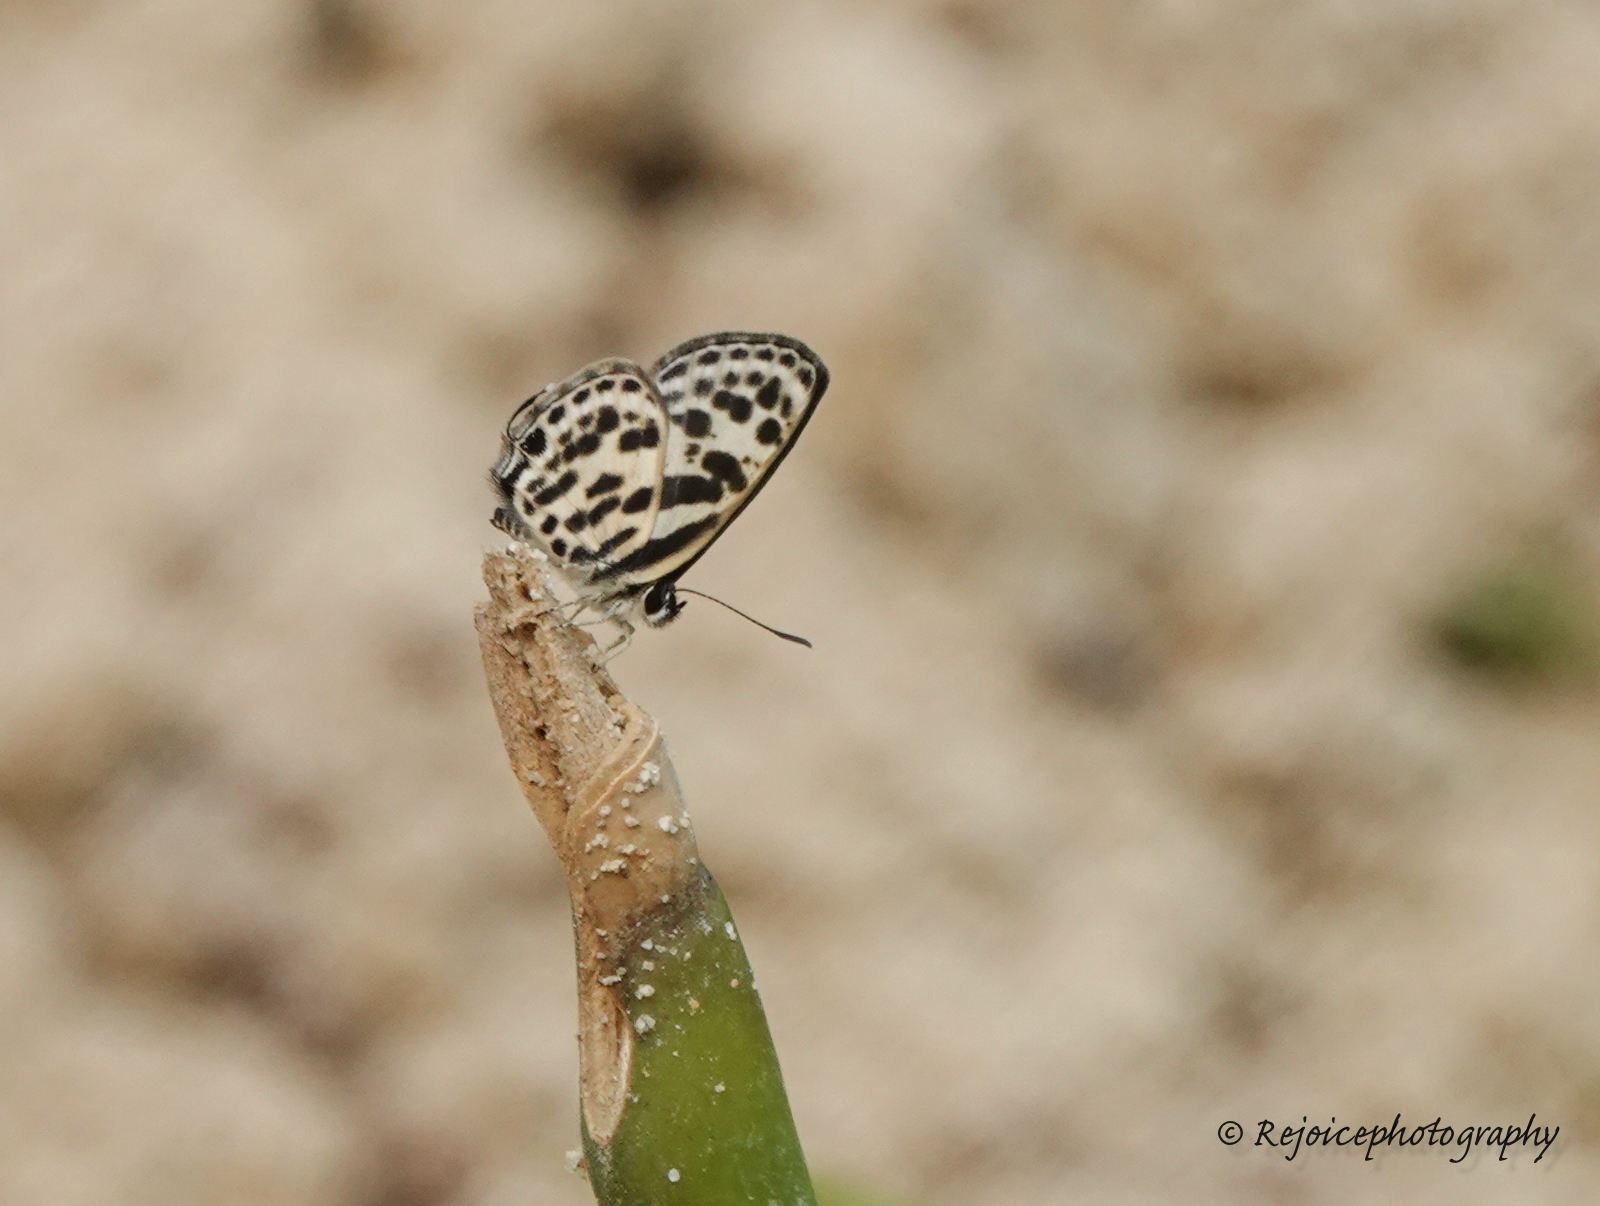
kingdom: Animalia
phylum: Arthropoda
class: Insecta
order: Lepidoptera
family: Lycaenidae
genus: Tarucus
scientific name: Tarucus
